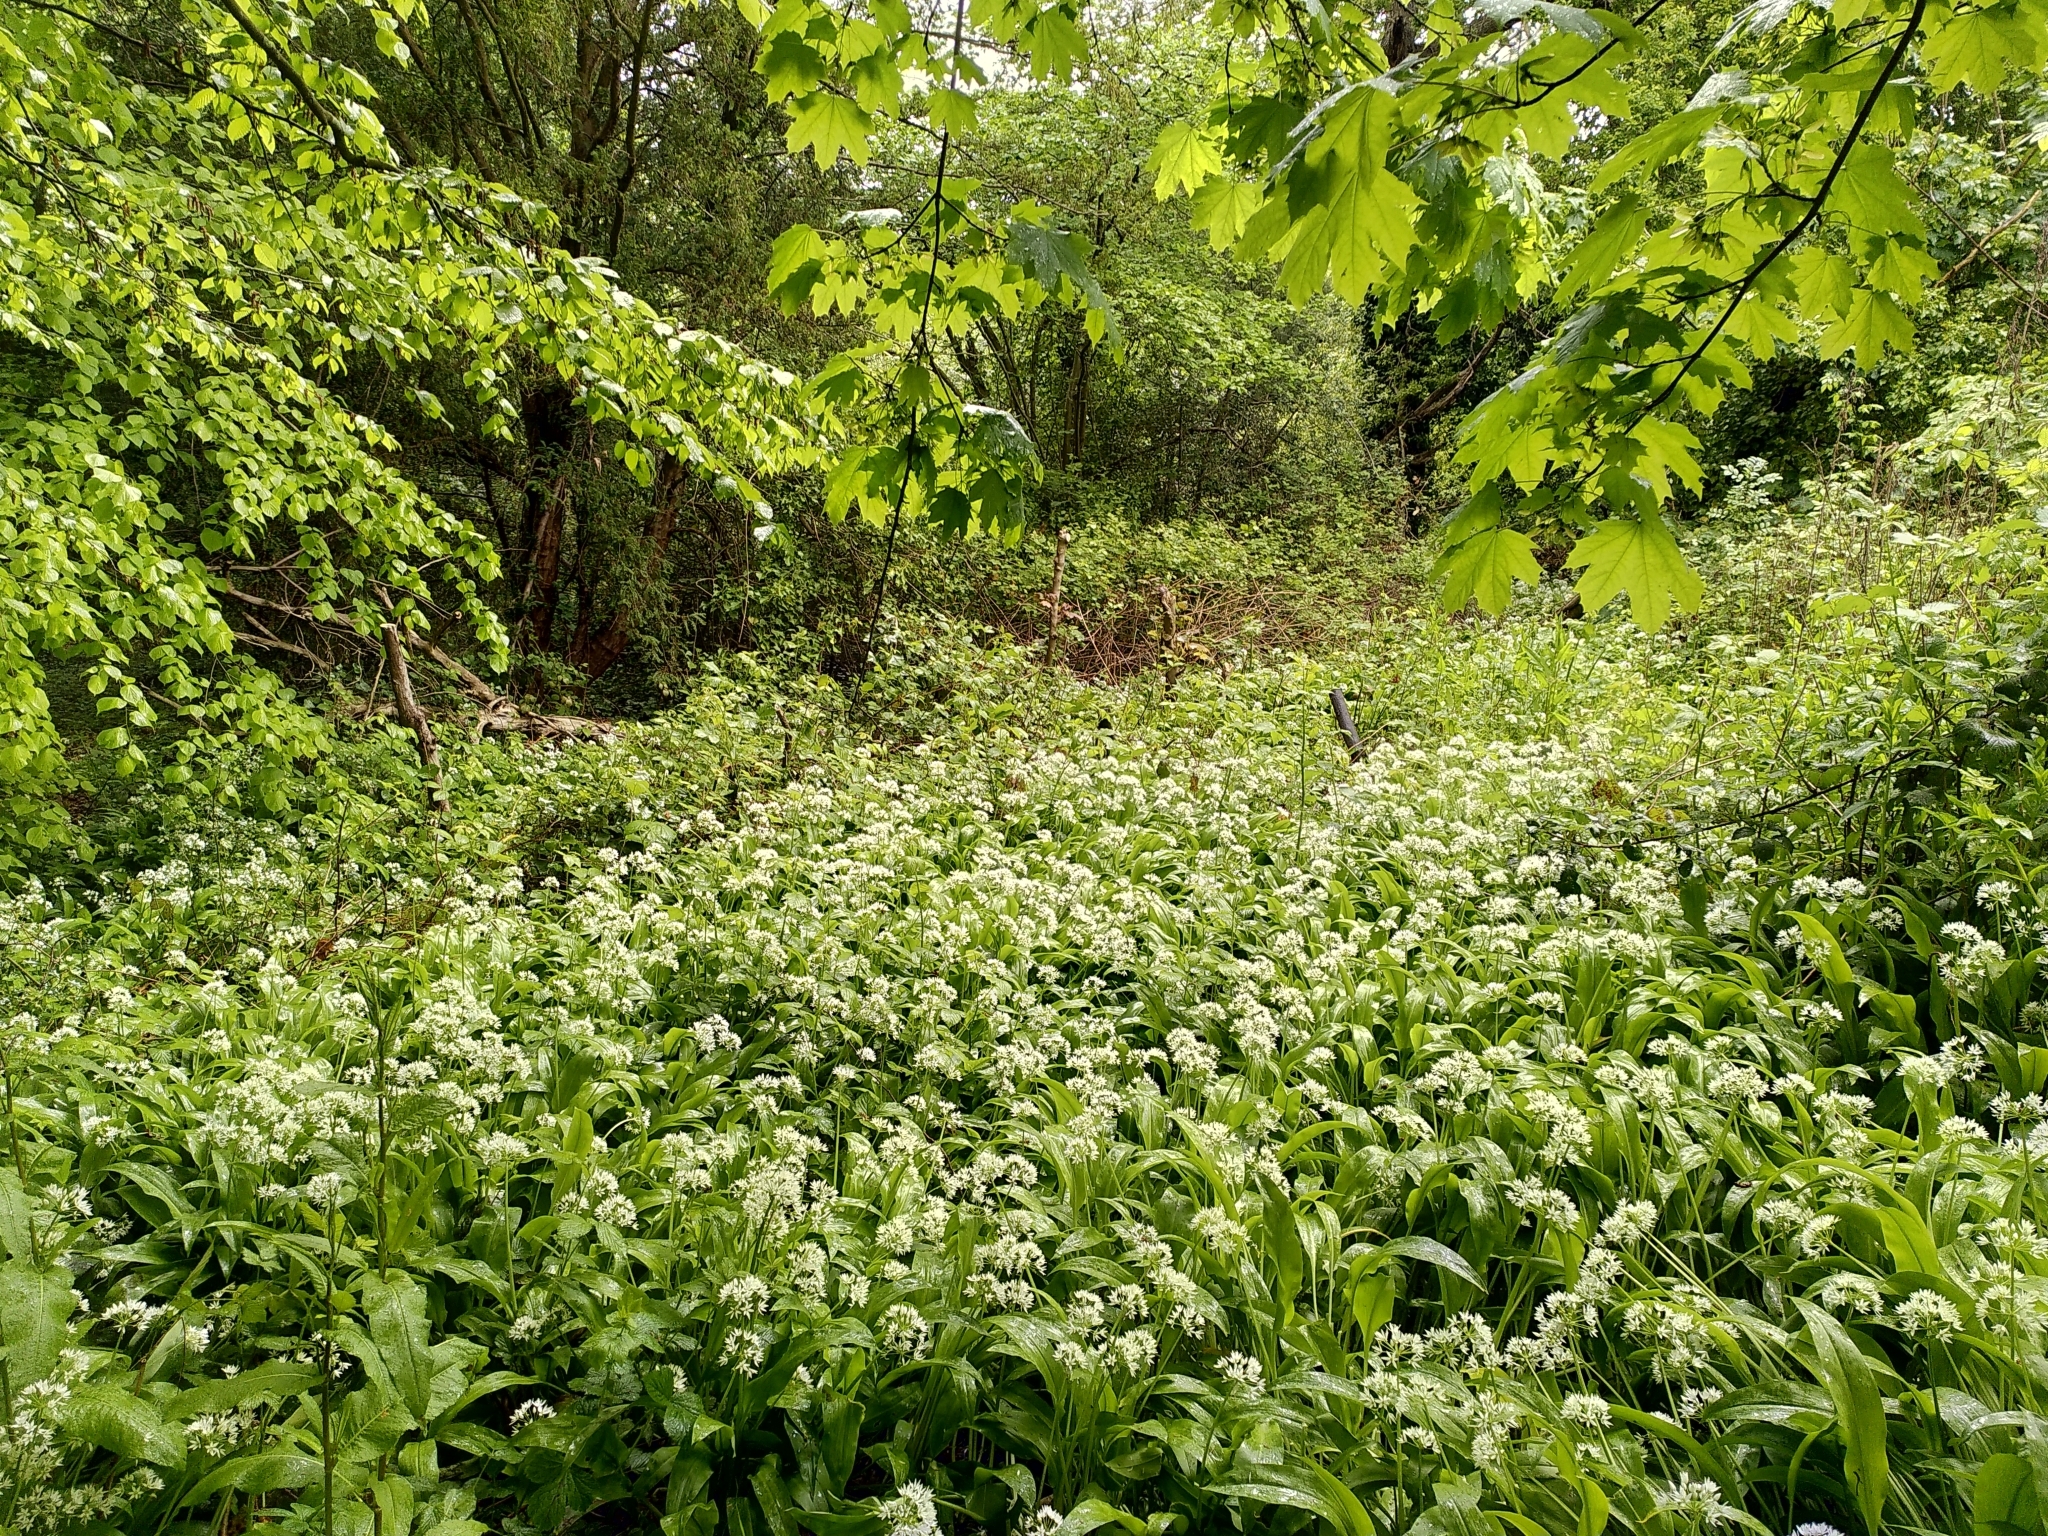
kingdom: Plantae
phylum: Tracheophyta
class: Liliopsida
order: Asparagales
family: Amaryllidaceae
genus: Allium
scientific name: Allium ursinum
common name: Ramsons
